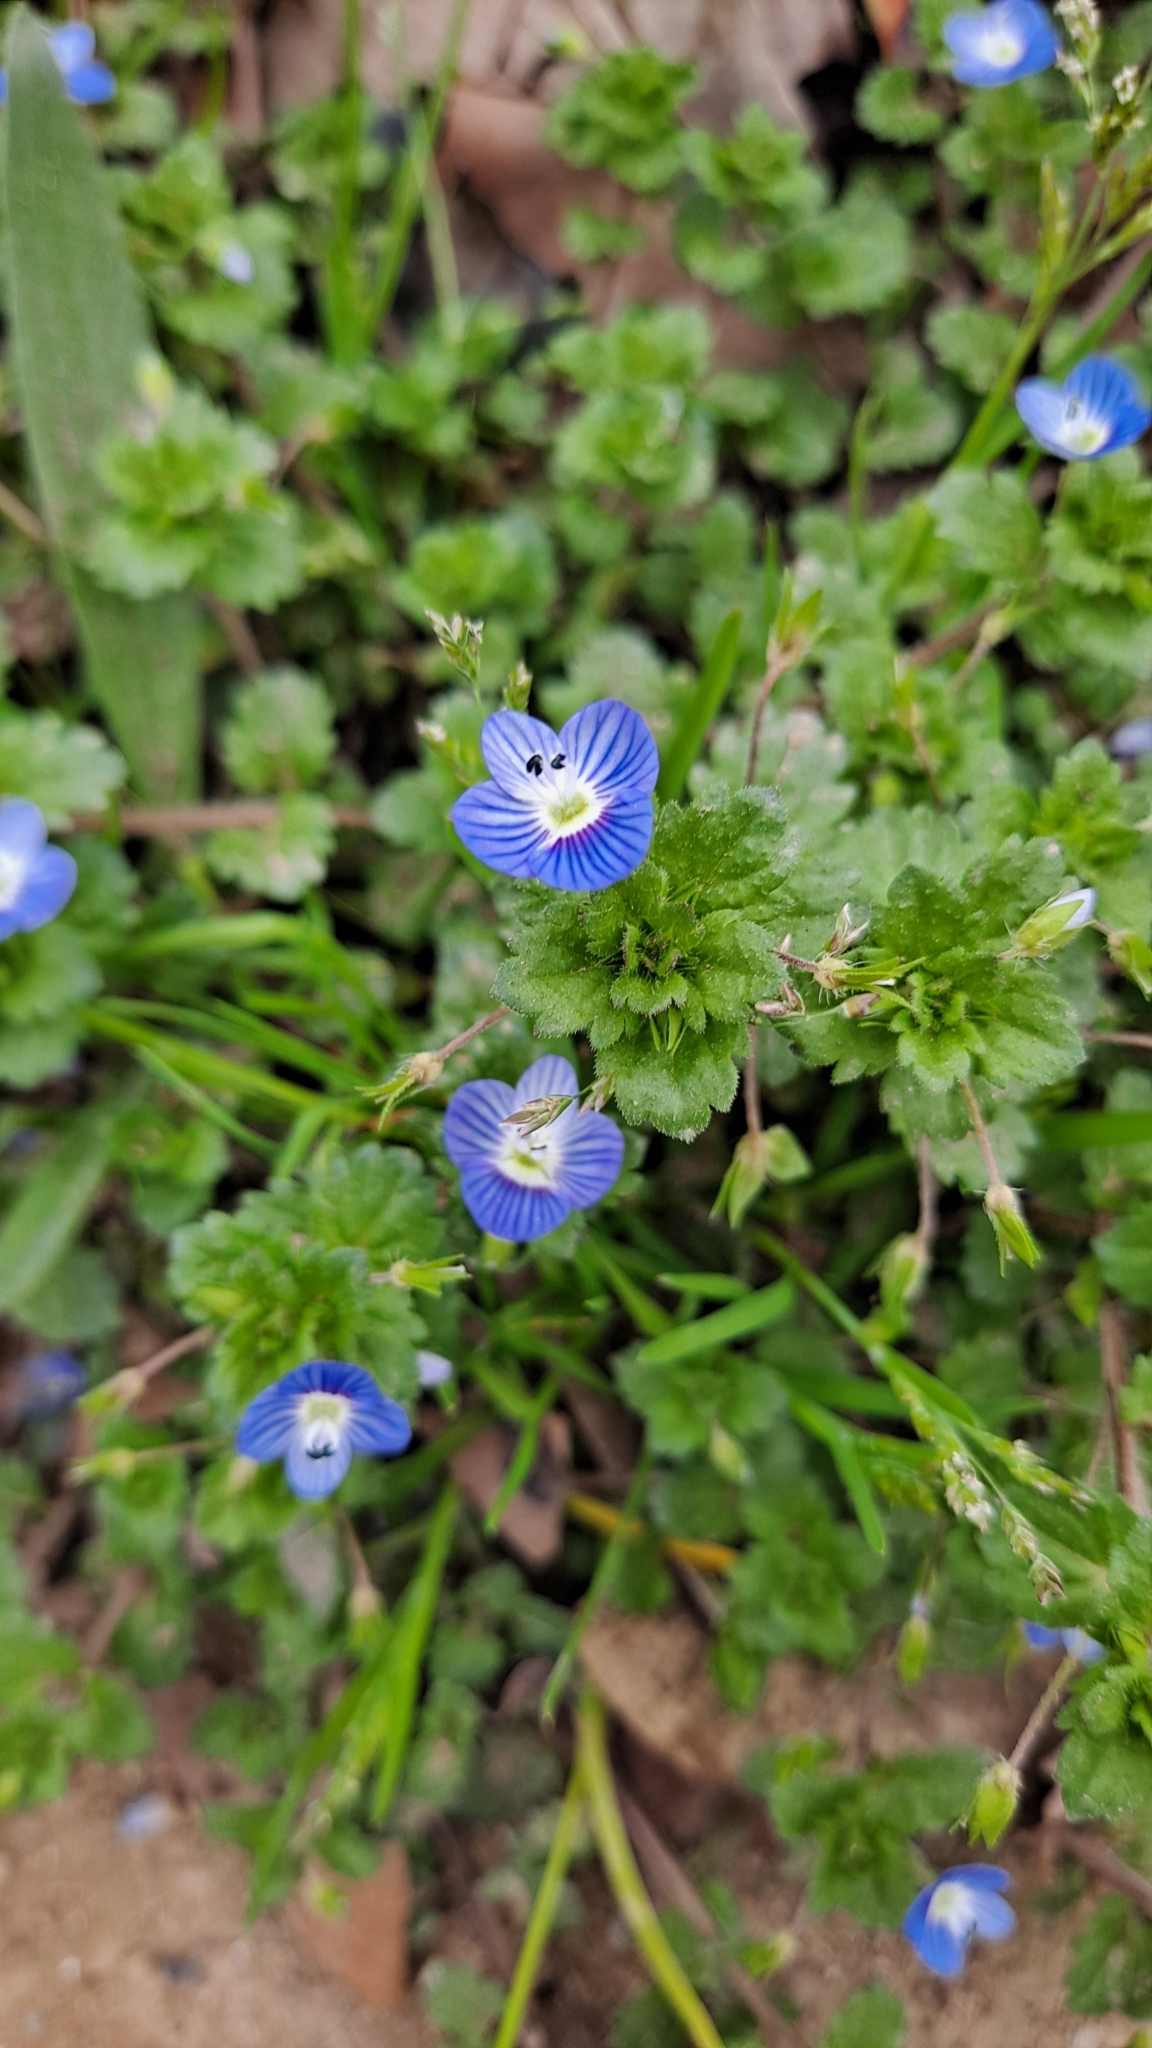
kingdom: Plantae
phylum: Tracheophyta
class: Magnoliopsida
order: Lamiales
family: Plantaginaceae
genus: Veronica
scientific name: Veronica persica
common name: Common field-speedwell
